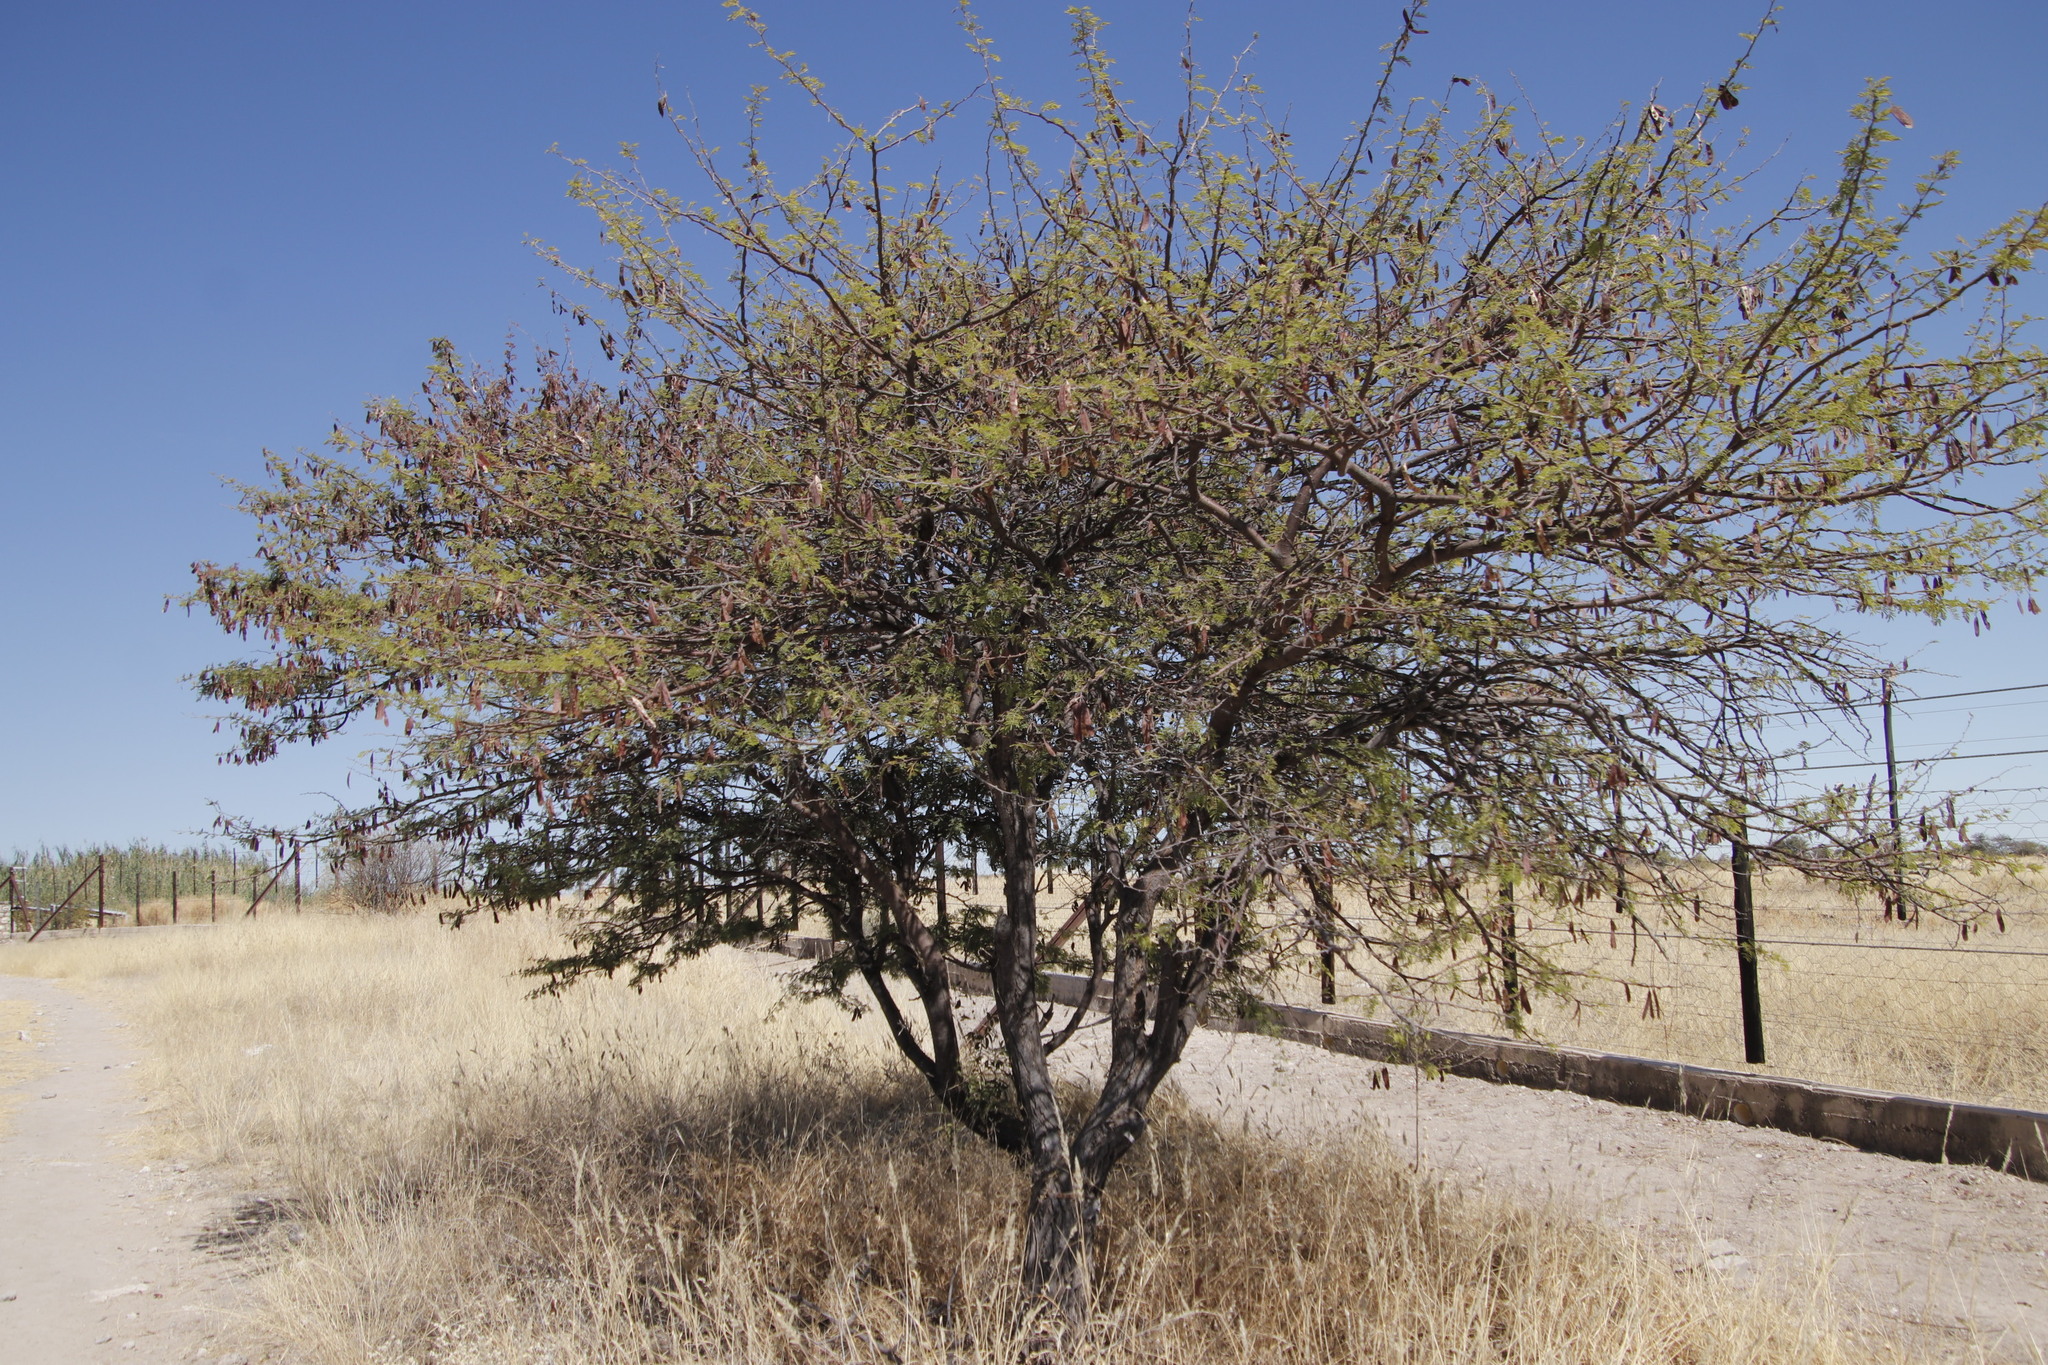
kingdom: Plantae
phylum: Tracheophyta
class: Magnoliopsida
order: Fabales
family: Fabaceae
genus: Albizia
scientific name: Albizia harveyi
